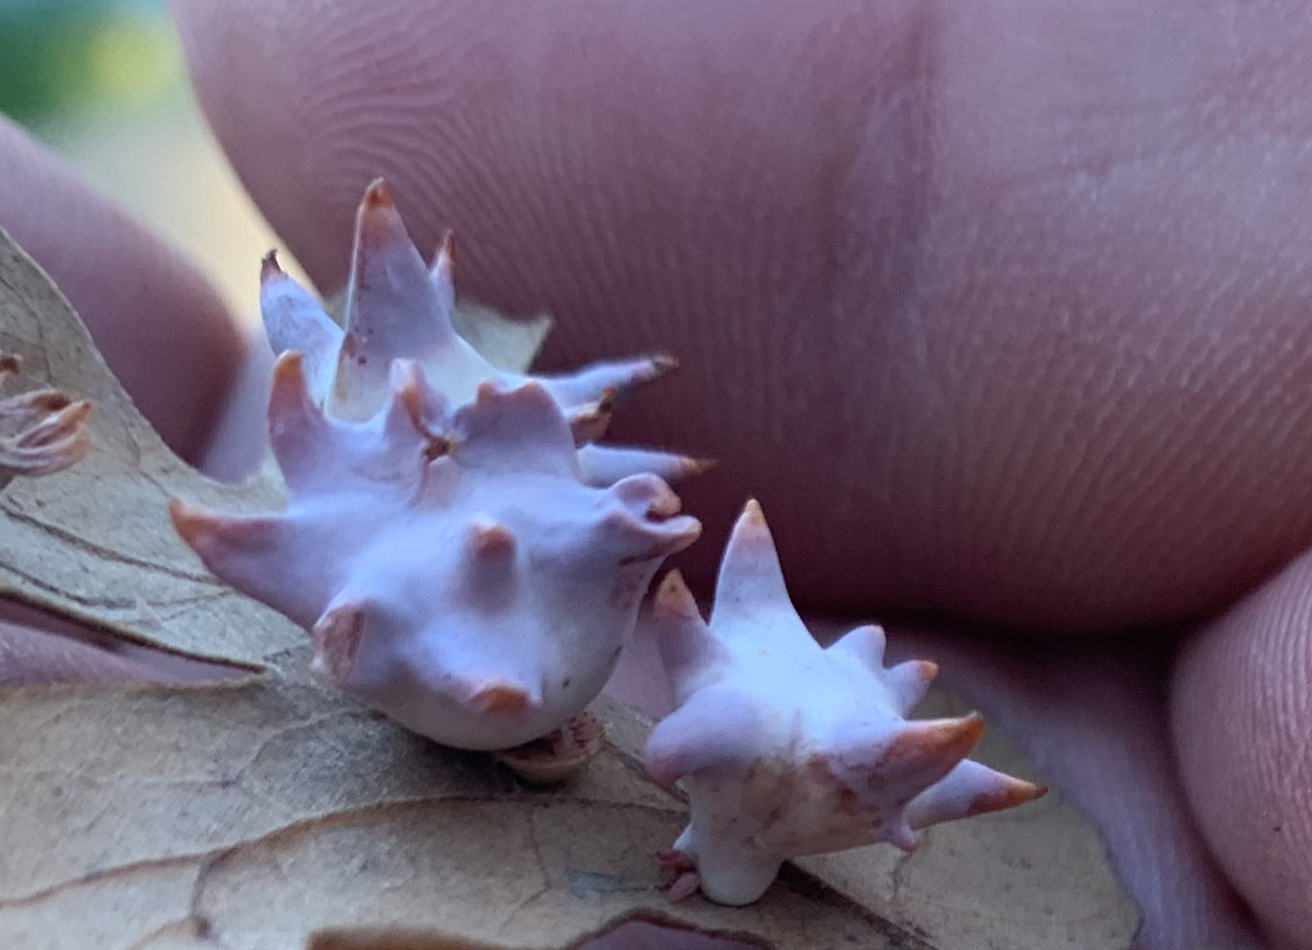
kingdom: Animalia
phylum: Arthropoda
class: Insecta
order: Hymenoptera
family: Cynipidae
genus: Cynips
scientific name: Cynips douglasi
